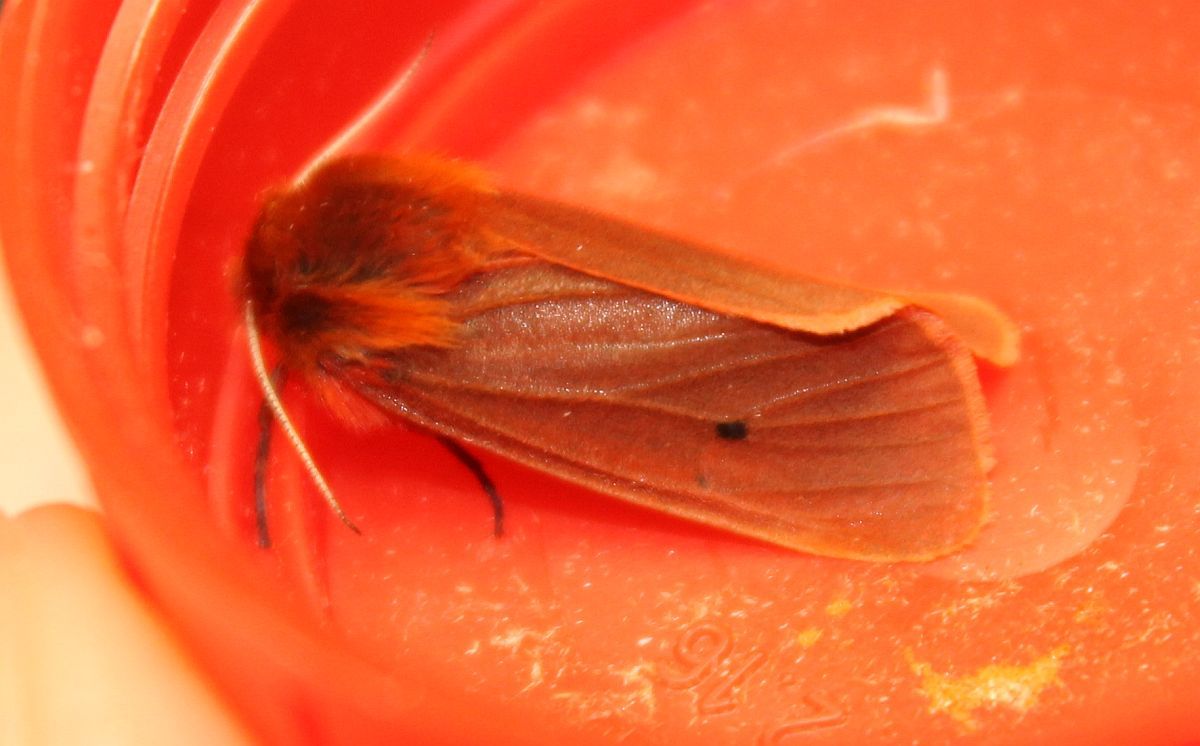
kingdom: Animalia
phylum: Arthropoda
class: Insecta
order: Lepidoptera
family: Erebidae
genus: Phragmatobia
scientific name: Phragmatobia fuliginosa
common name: Ruby tiger
